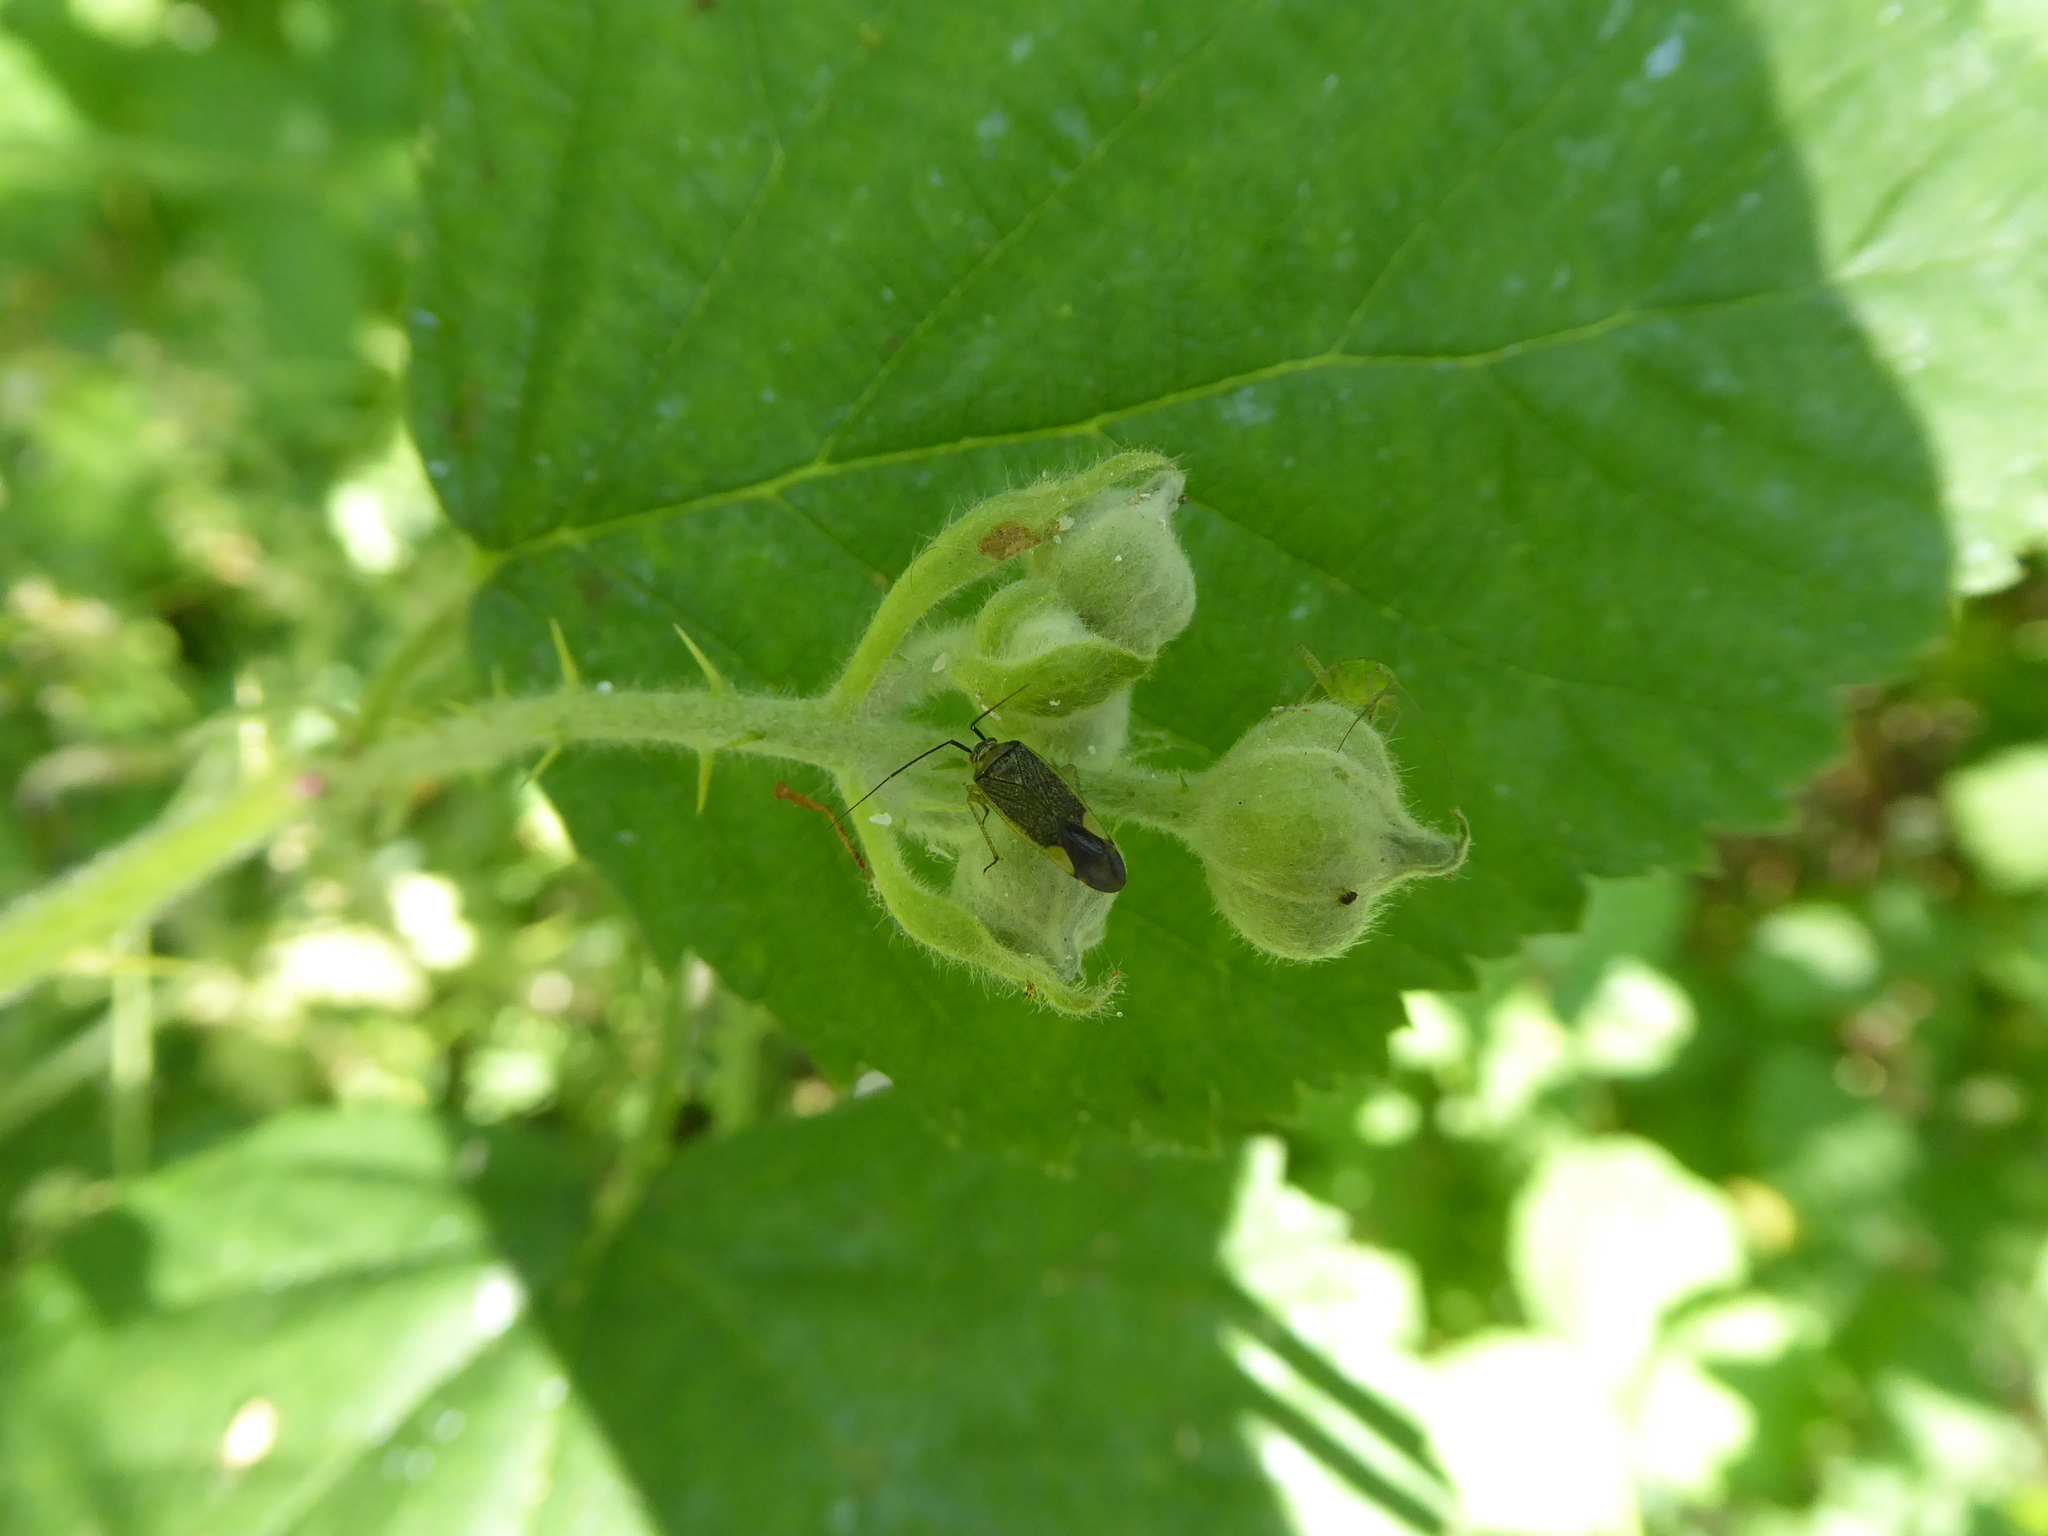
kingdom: Animalia
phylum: Arthropoda
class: Insecta
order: Hemiptera
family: Miridae
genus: Closterotomus
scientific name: Closterotomus trivialis
